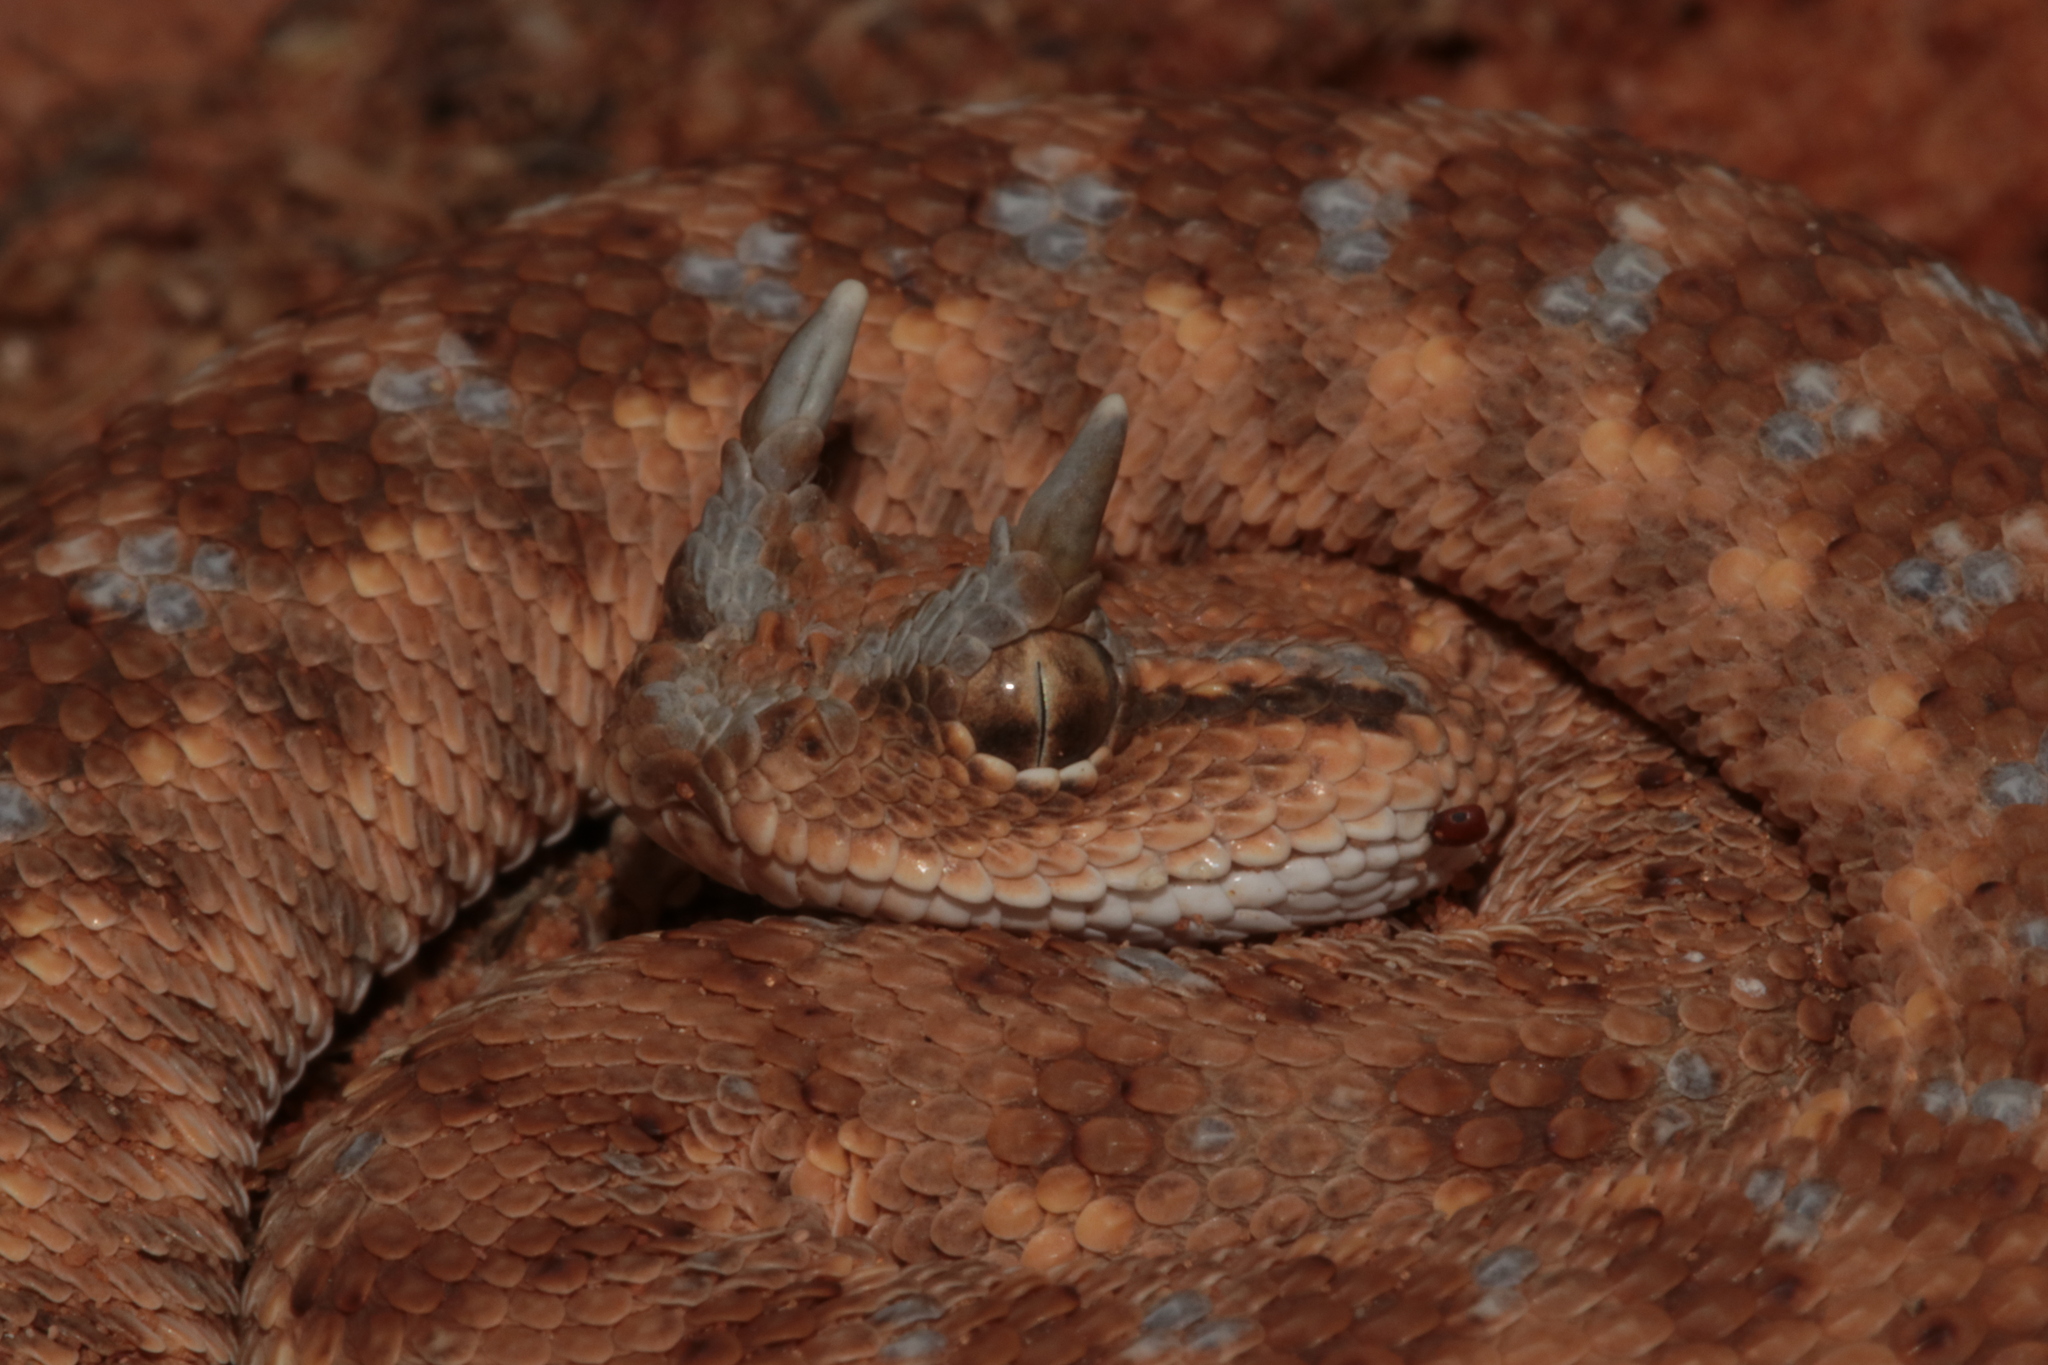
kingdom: Animalia
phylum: Chordata
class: Squamata
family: Viperidae
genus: Cerastes
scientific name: Cerastes gasperettii
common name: Arabian horned viper
